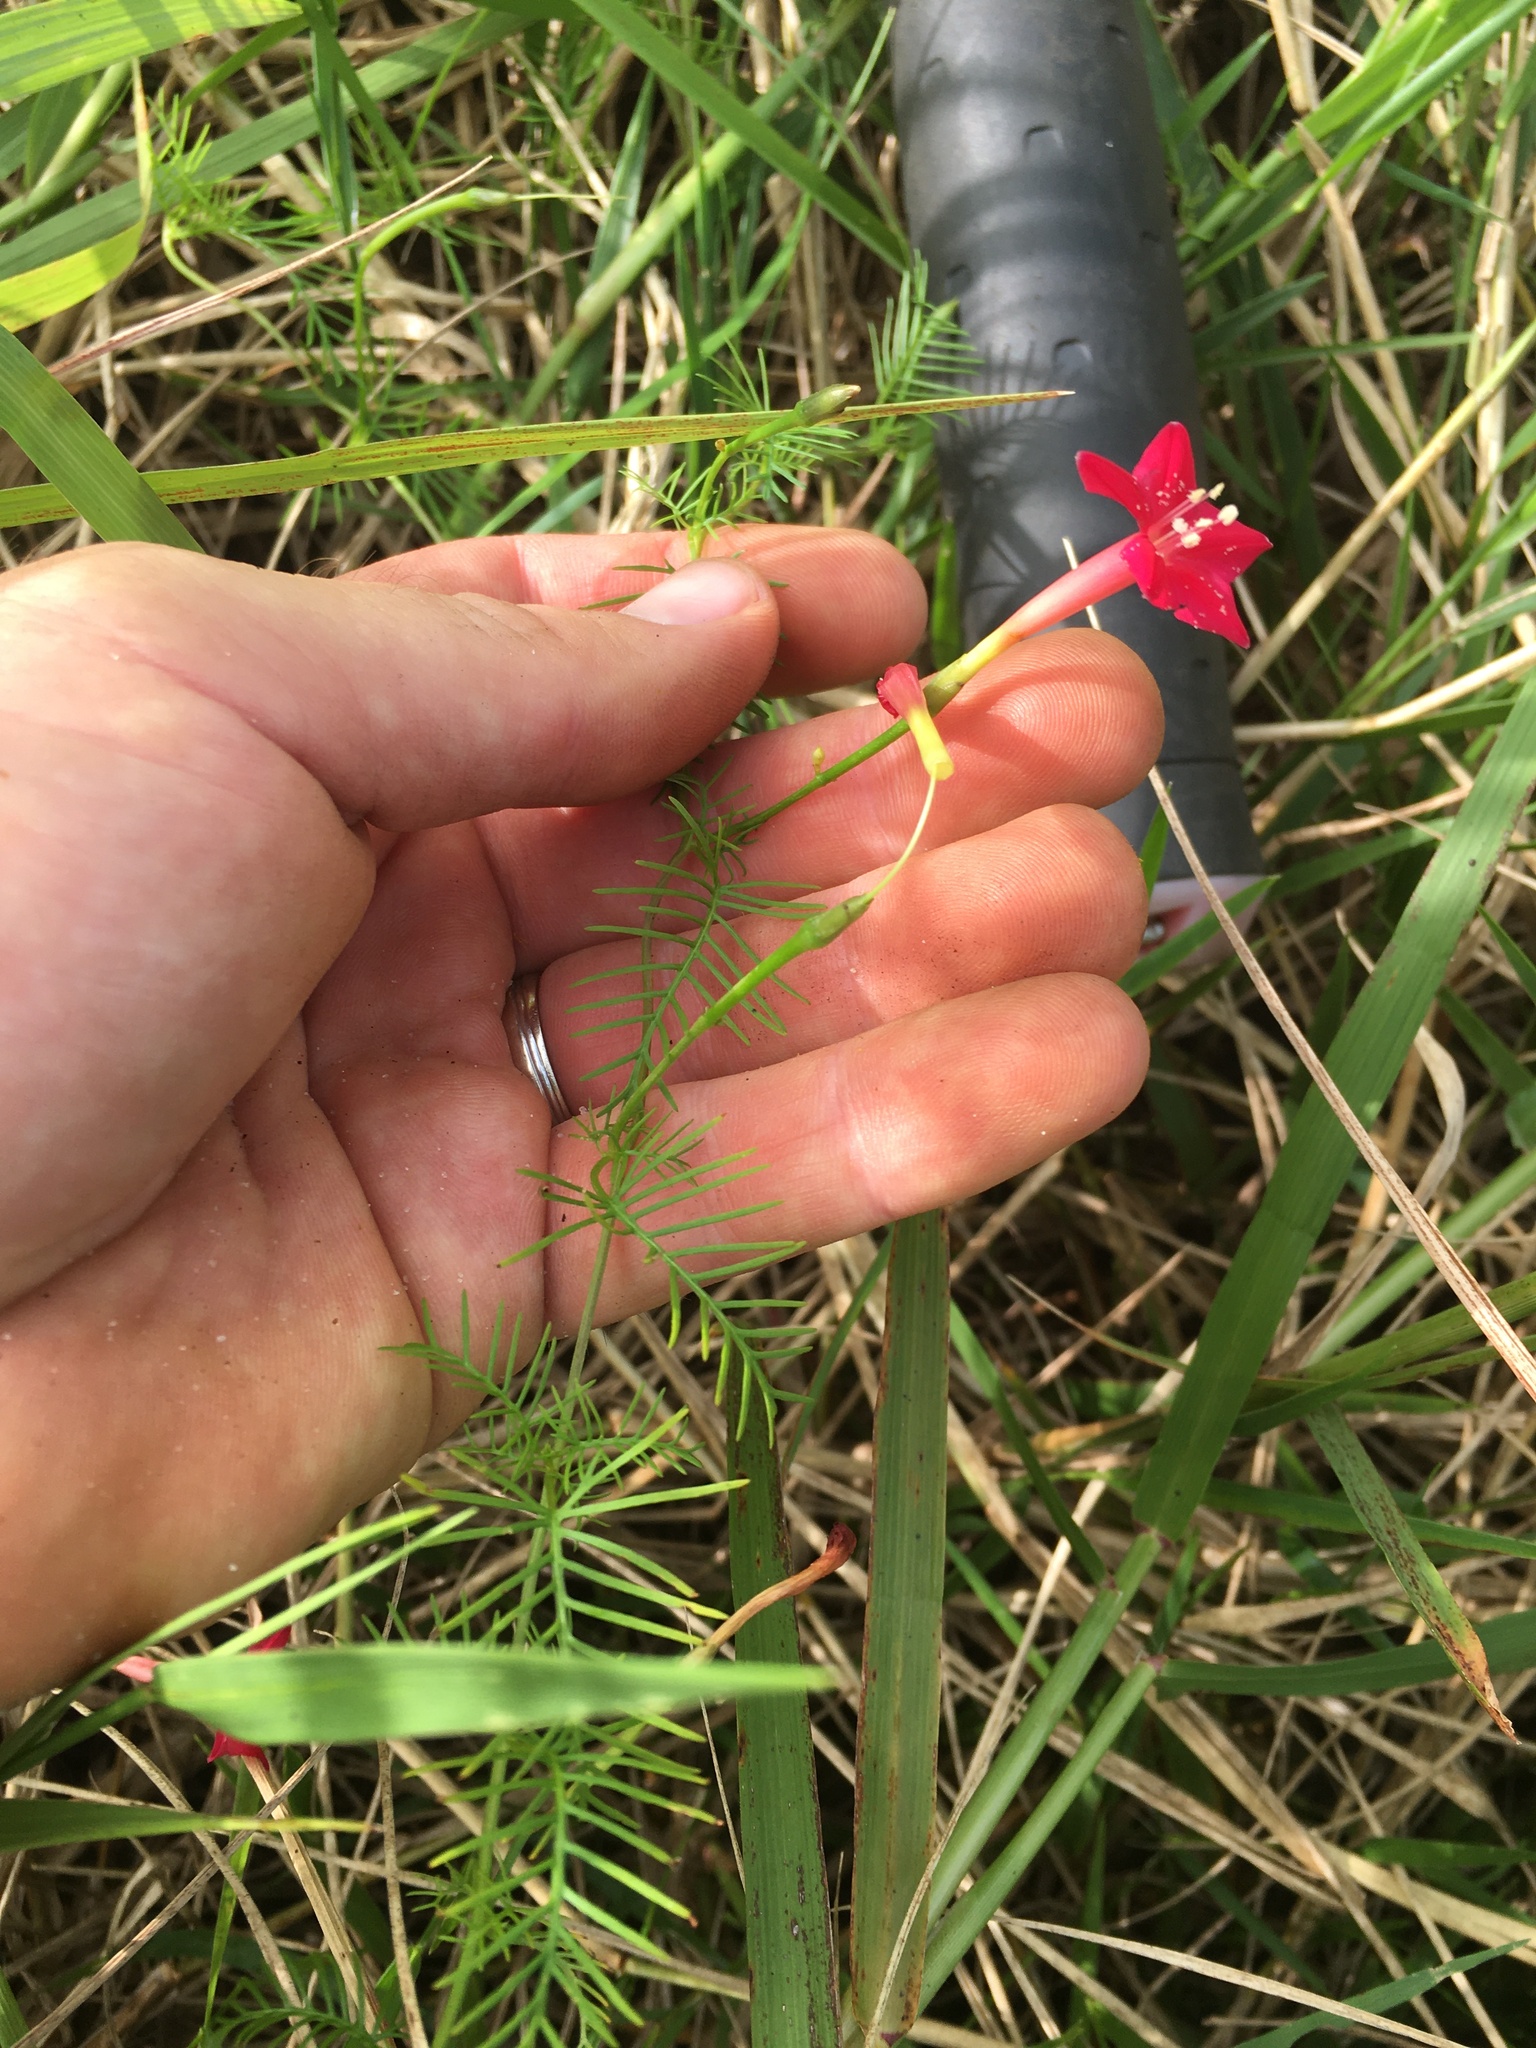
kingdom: Plantae
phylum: Tracheophyta
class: Magnoliopsida
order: Solanales
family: Convolvulaceae
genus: Ipomoea
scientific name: Ipomoea quamoclit
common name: Cypress vine
